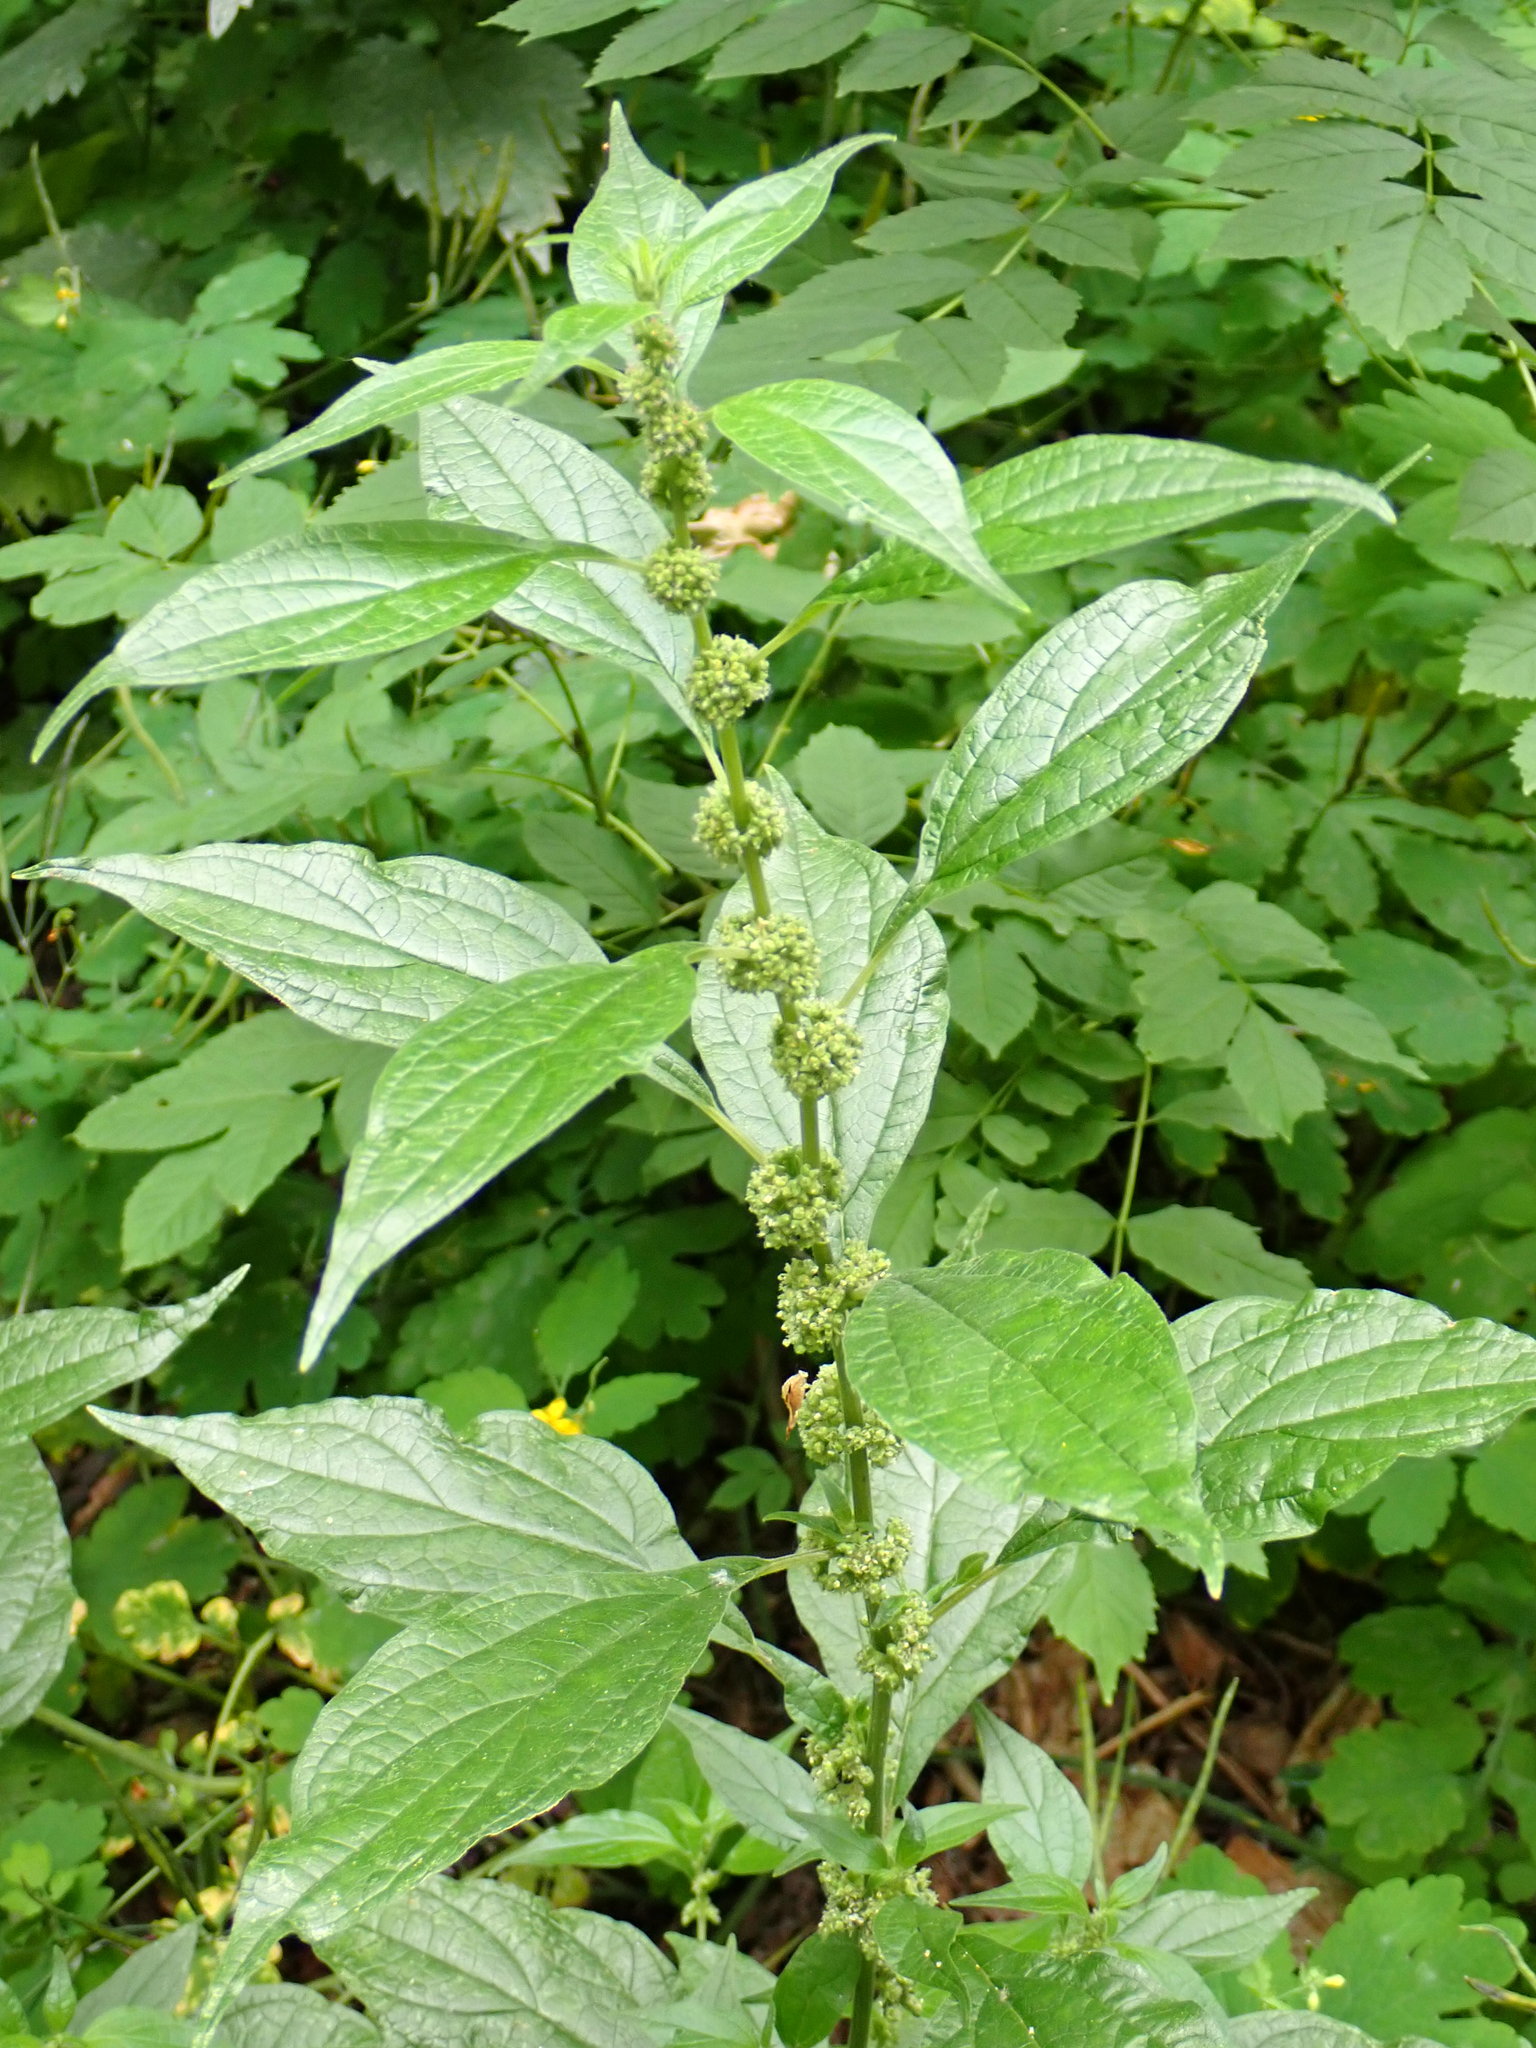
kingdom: Plantae
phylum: Tracheophyta
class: Magnoliopsida
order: Rosales
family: Urticaceae
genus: Parietaria
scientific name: Parietaria officinalis
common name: Eastern pellitory-of-the-wall
